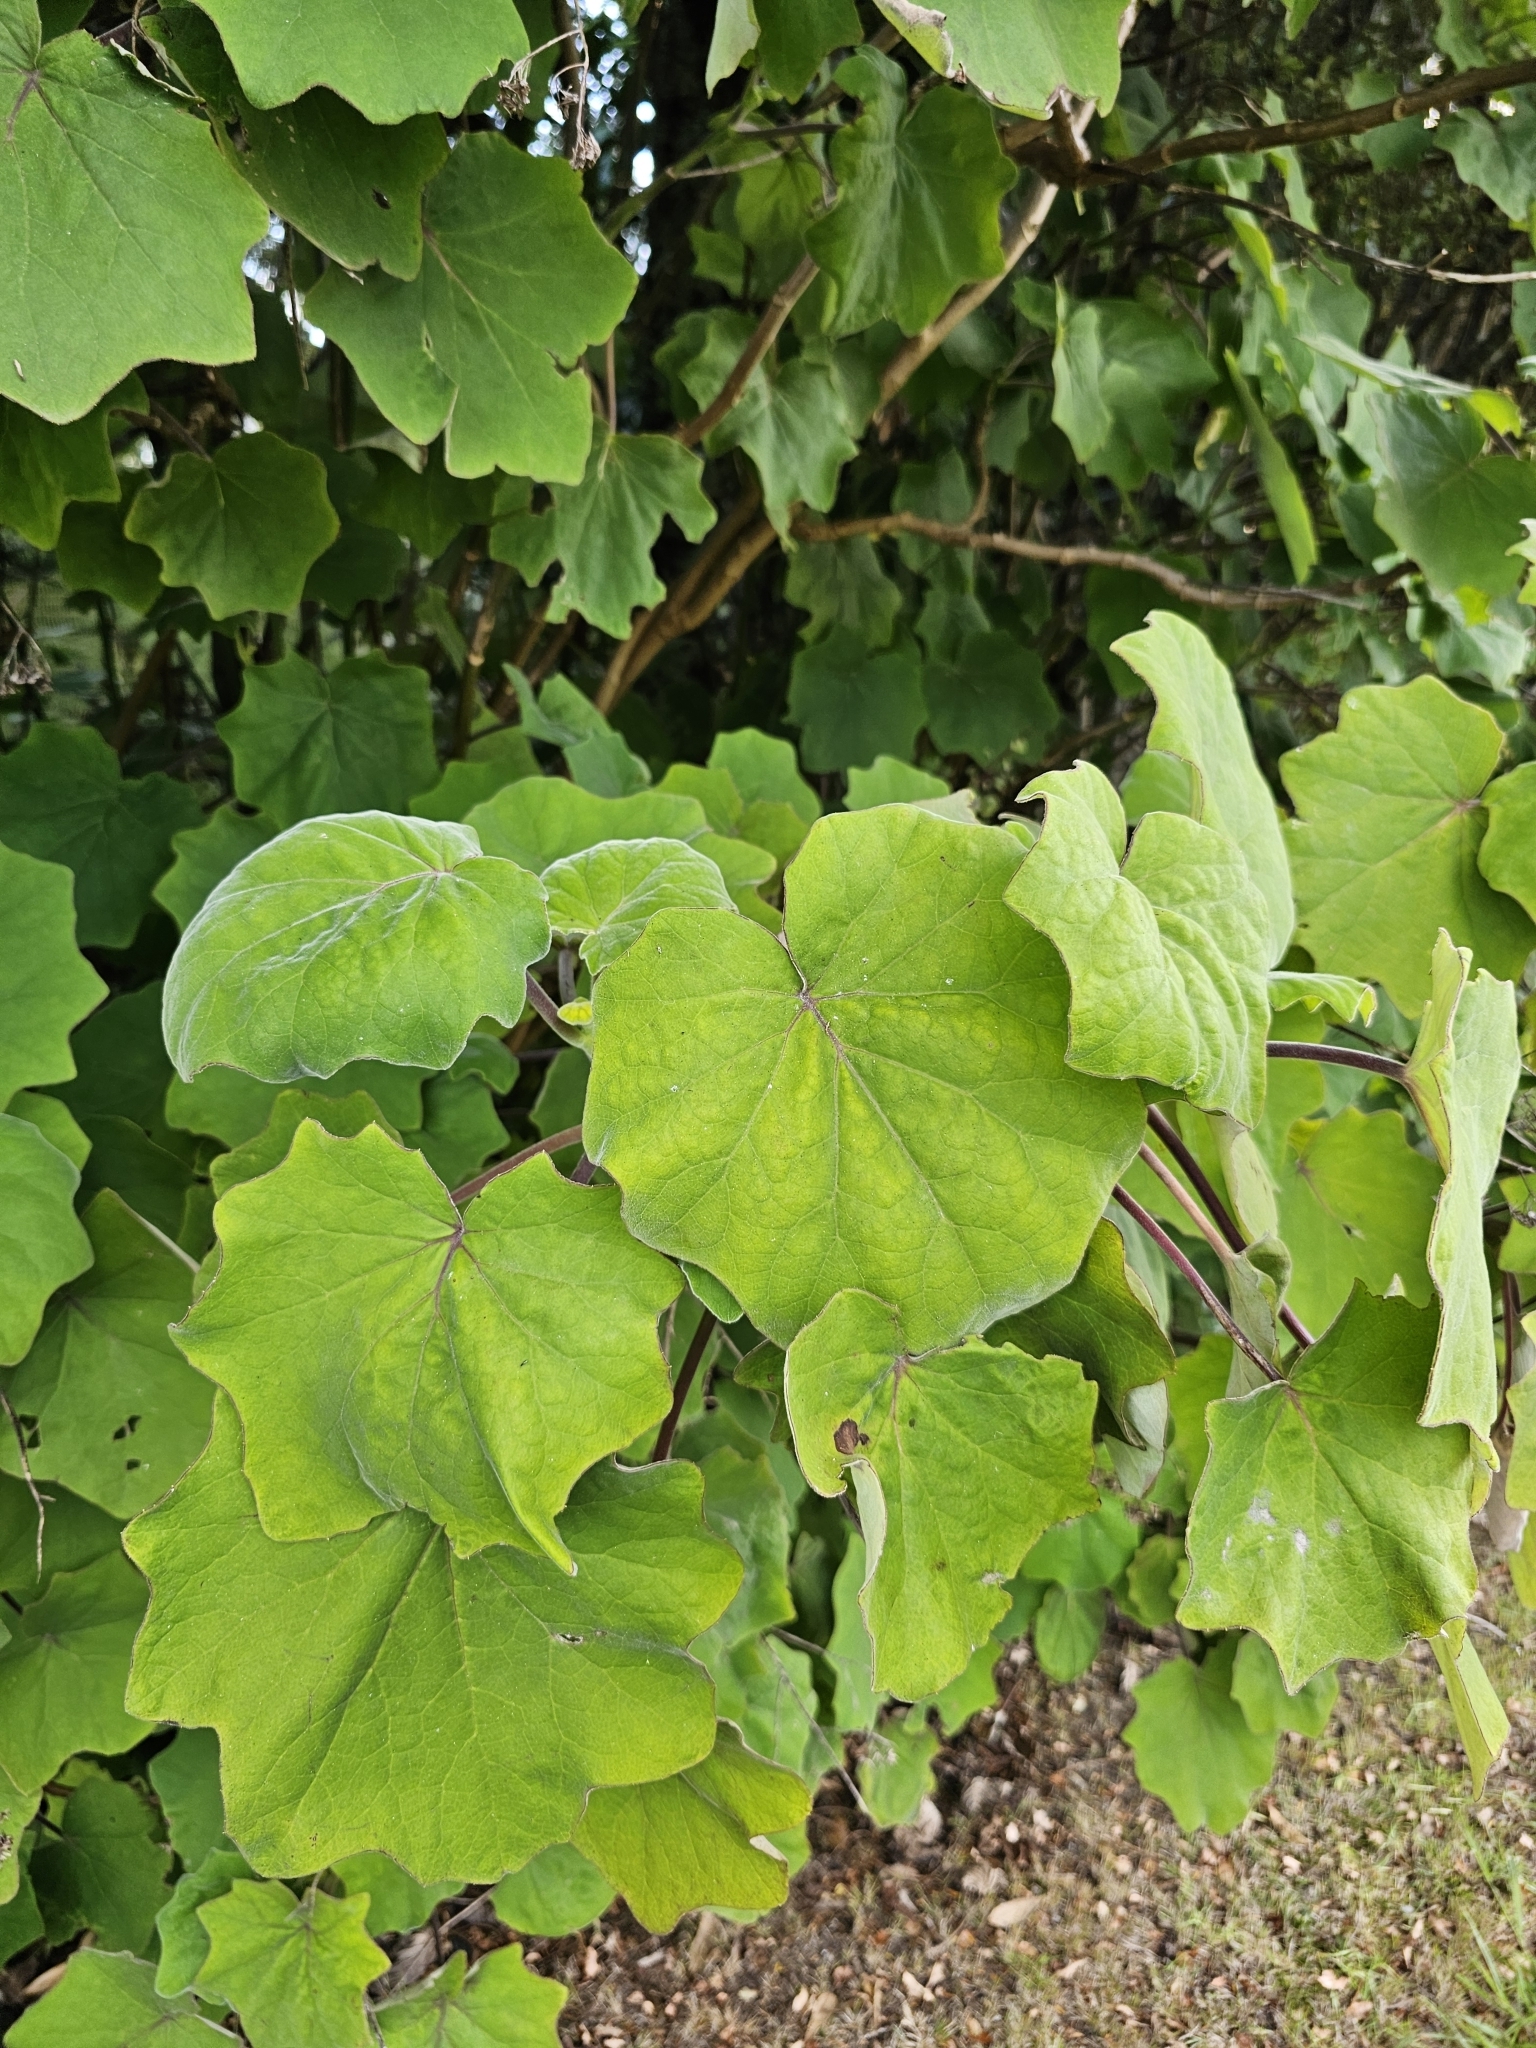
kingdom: Plantae
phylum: Tracheophyta
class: Magnoliopsida
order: Asterales
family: Asteraceae
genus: Roldana
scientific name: Roldana petasitis
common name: California-geranium
